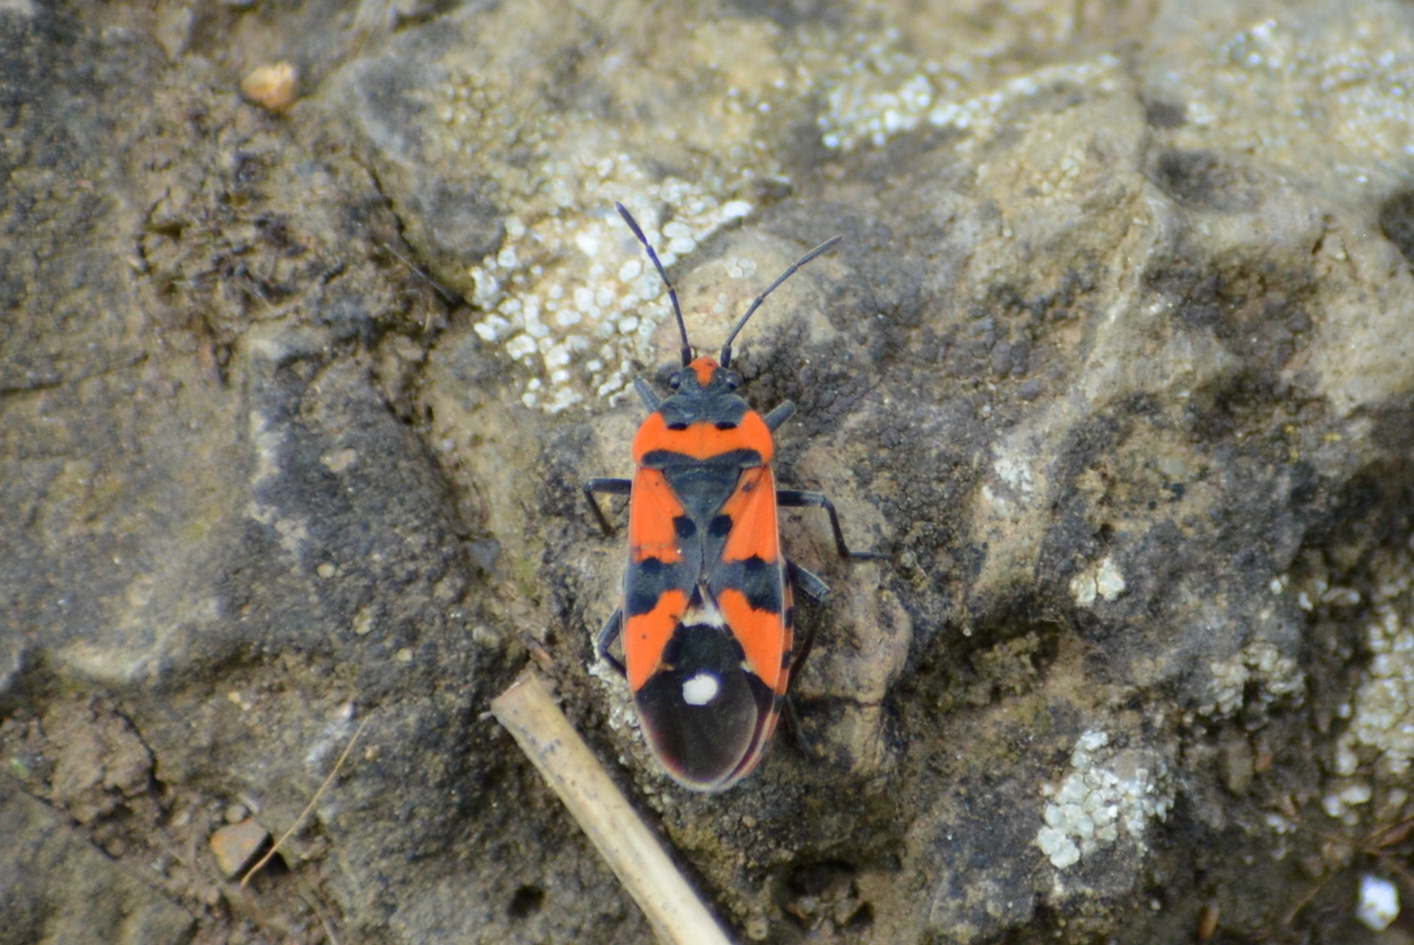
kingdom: Animalia
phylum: Arthropoda
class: Insecta
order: Hemiptera
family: Lygaeidae
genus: Lygaeus
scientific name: Lygaeus equestris
